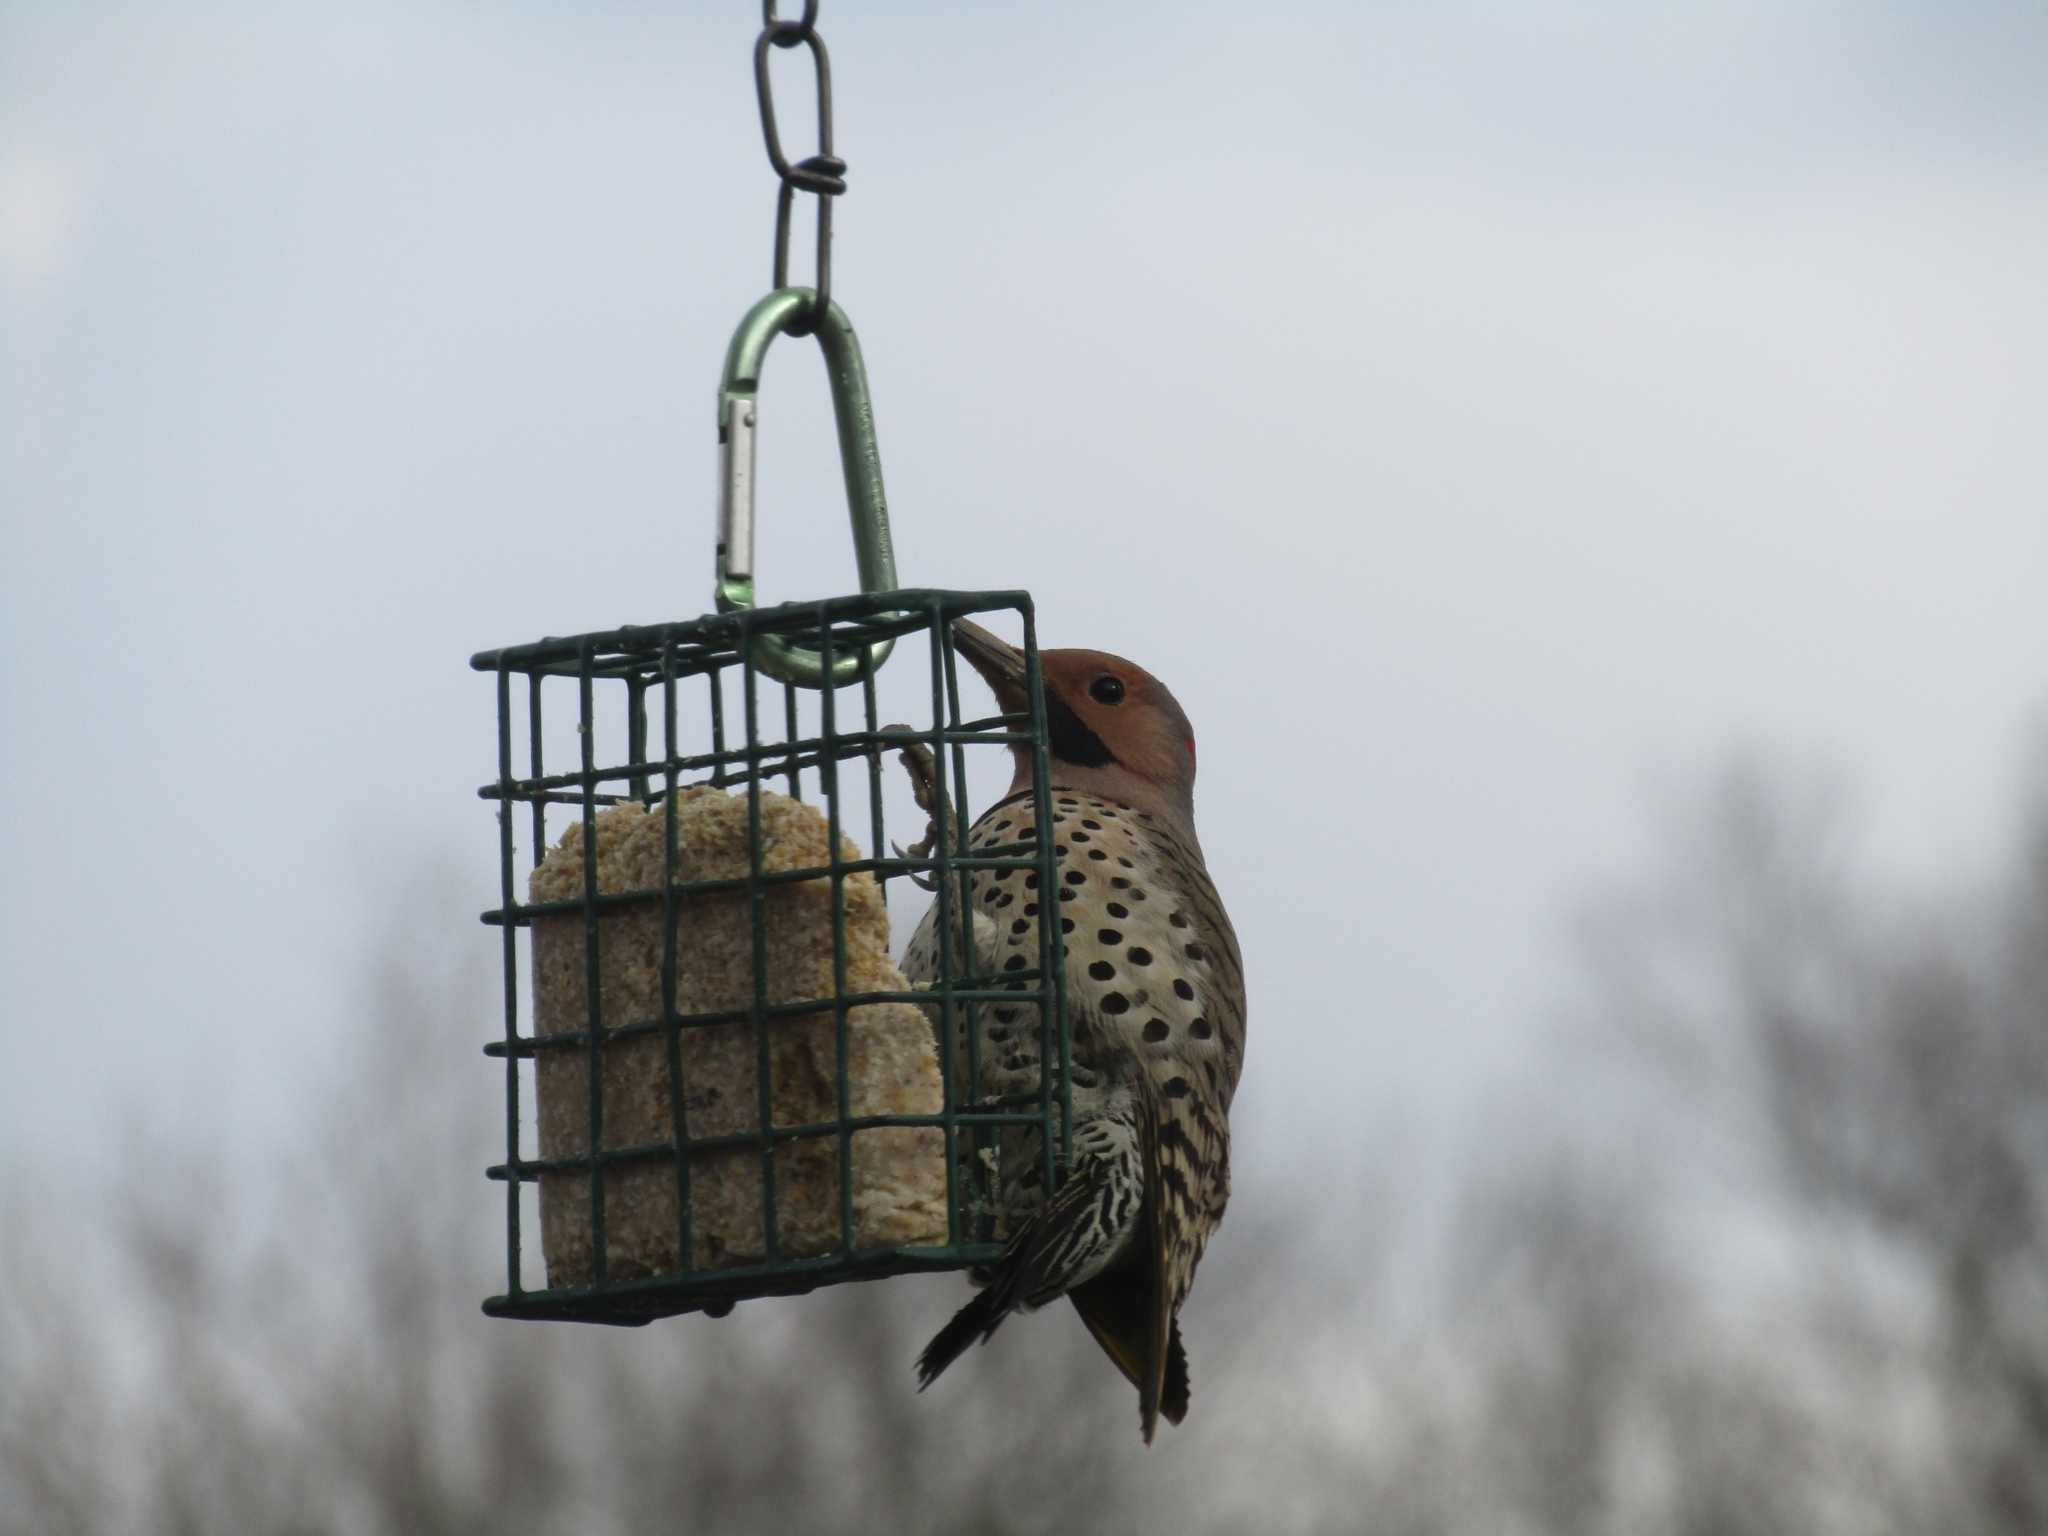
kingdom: Animalia
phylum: Chordata
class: Aves
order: Piciformes
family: Picidae
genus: Colaptes
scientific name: Colaptes auratus
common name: Northern flicker
